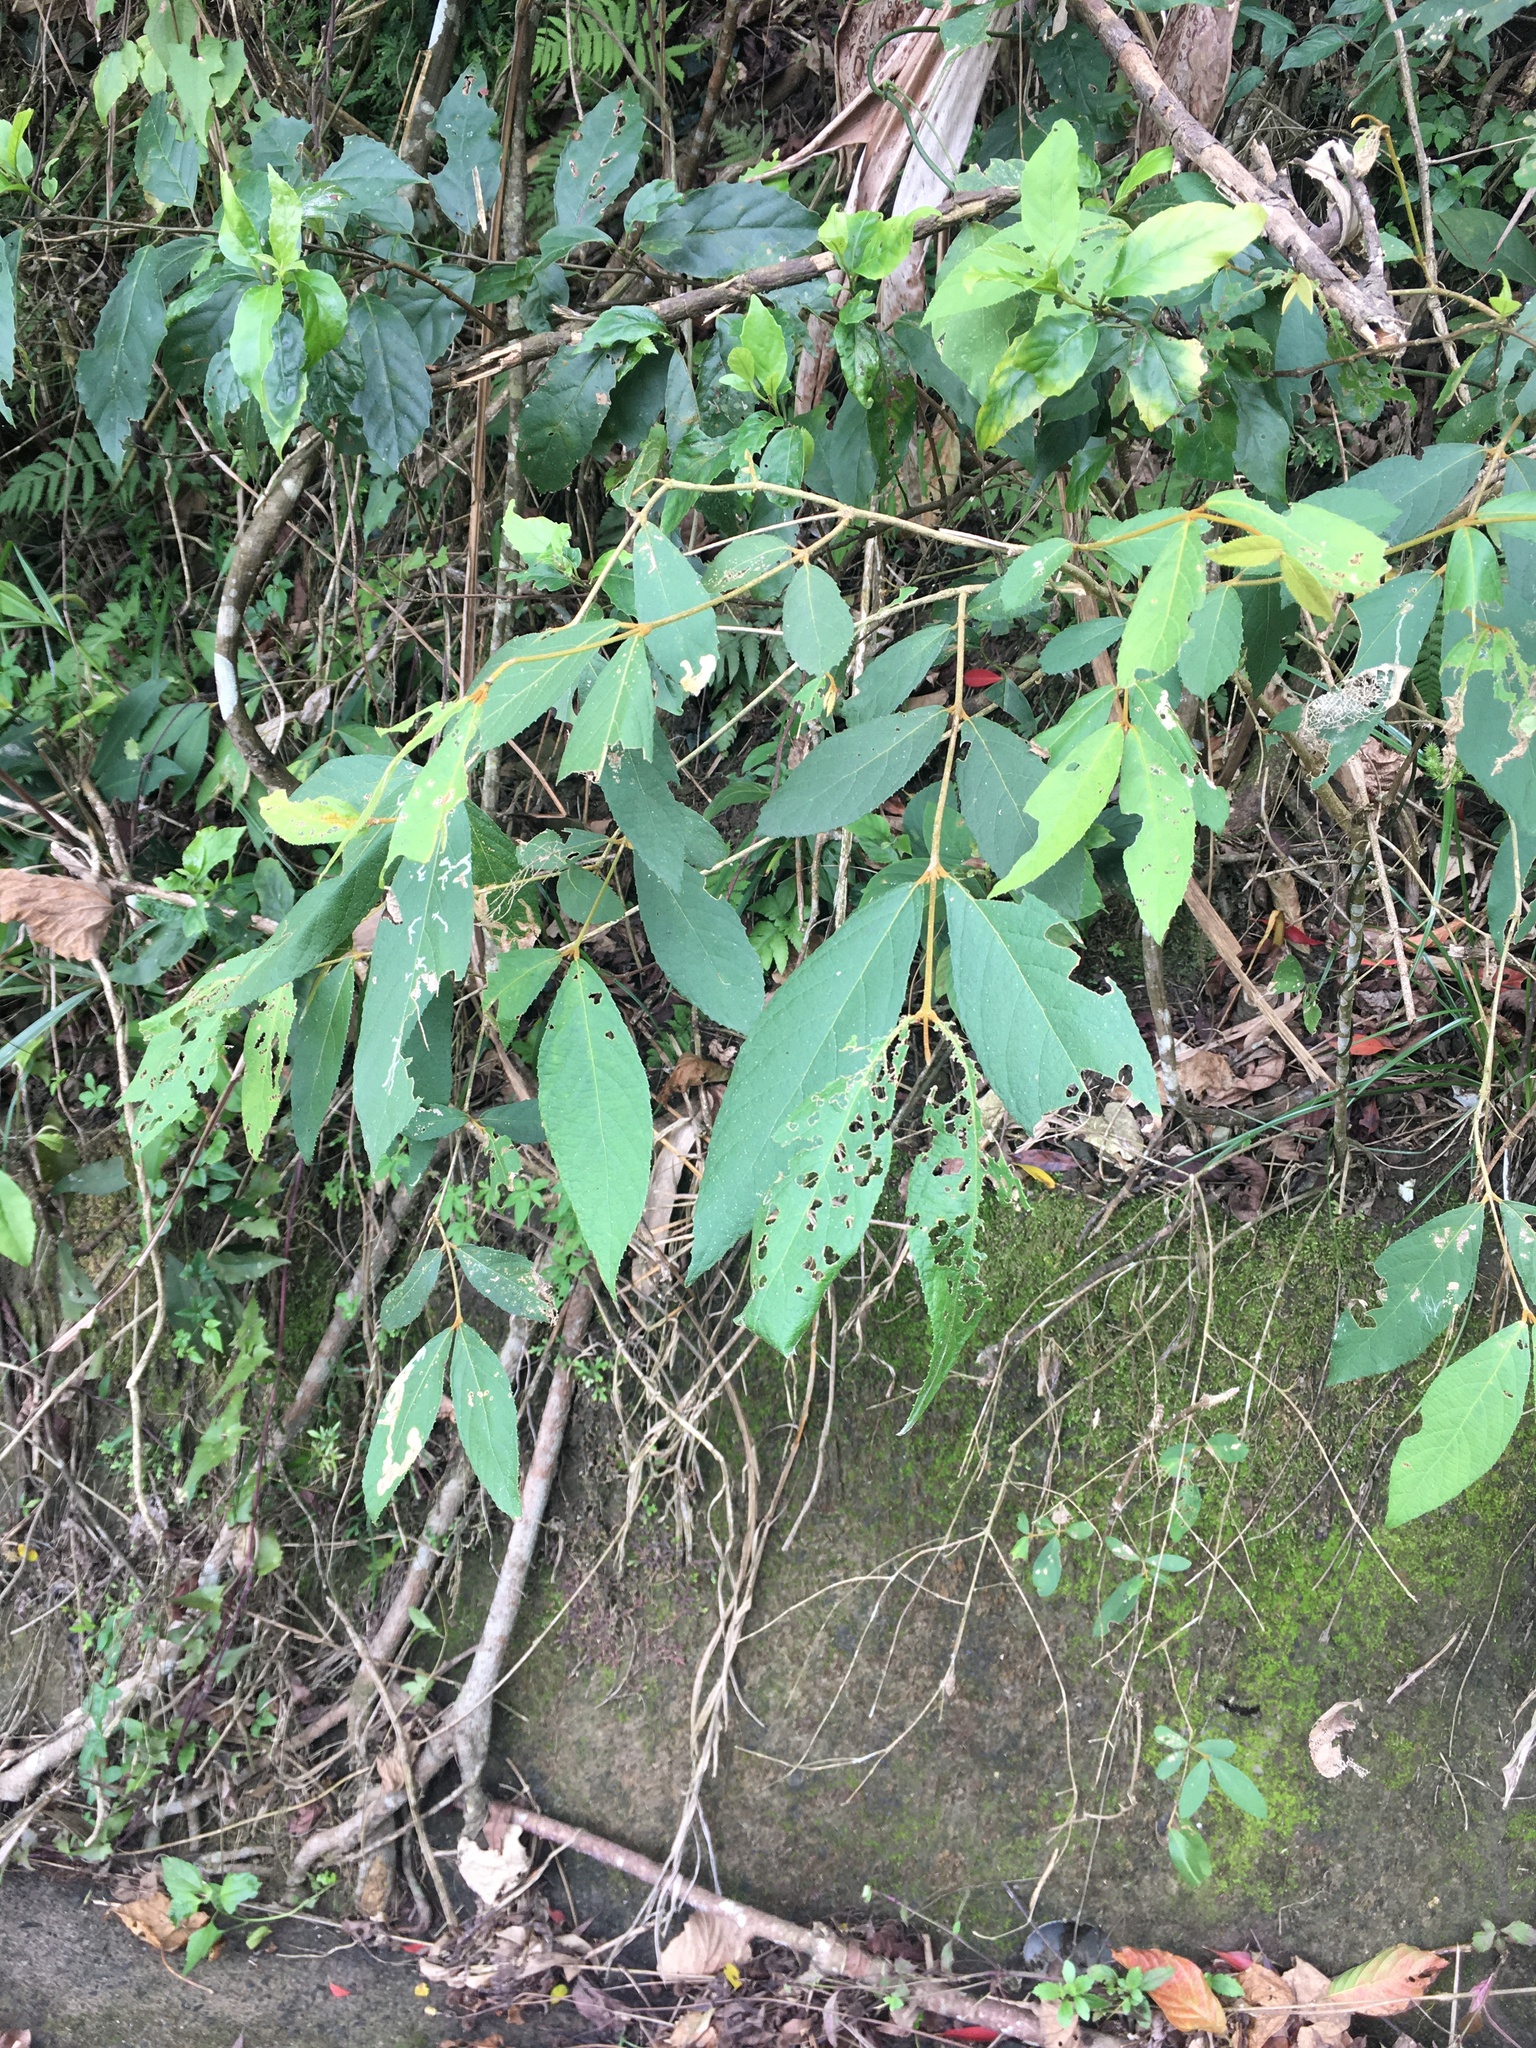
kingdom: Plantae
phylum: Tracheophyta
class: Magnoliopsida
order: Lamiales
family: Lamiaceae
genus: Callicarpa
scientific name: Callicarpa pedunculata
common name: Velvetleaf
